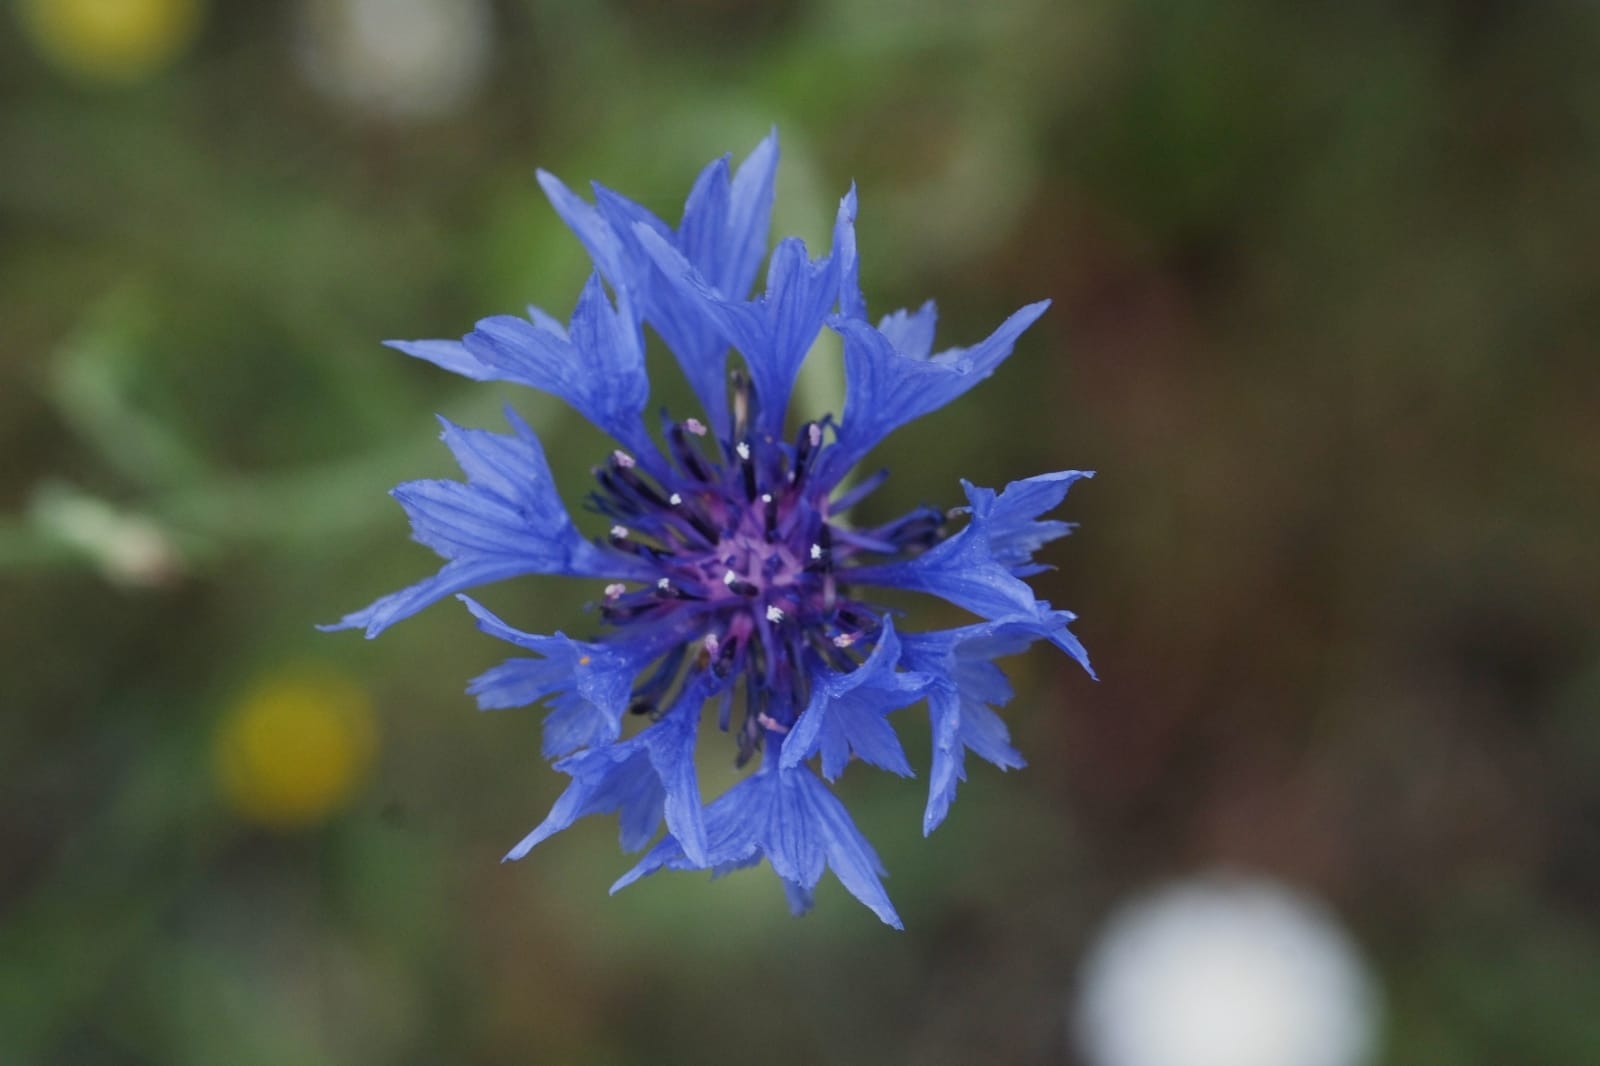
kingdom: Plantae
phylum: Tracheophyta
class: Magnoliopsida
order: Asterales
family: Asteraceae
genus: Centaurea
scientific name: Centaurea cyanus
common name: Cornflower
